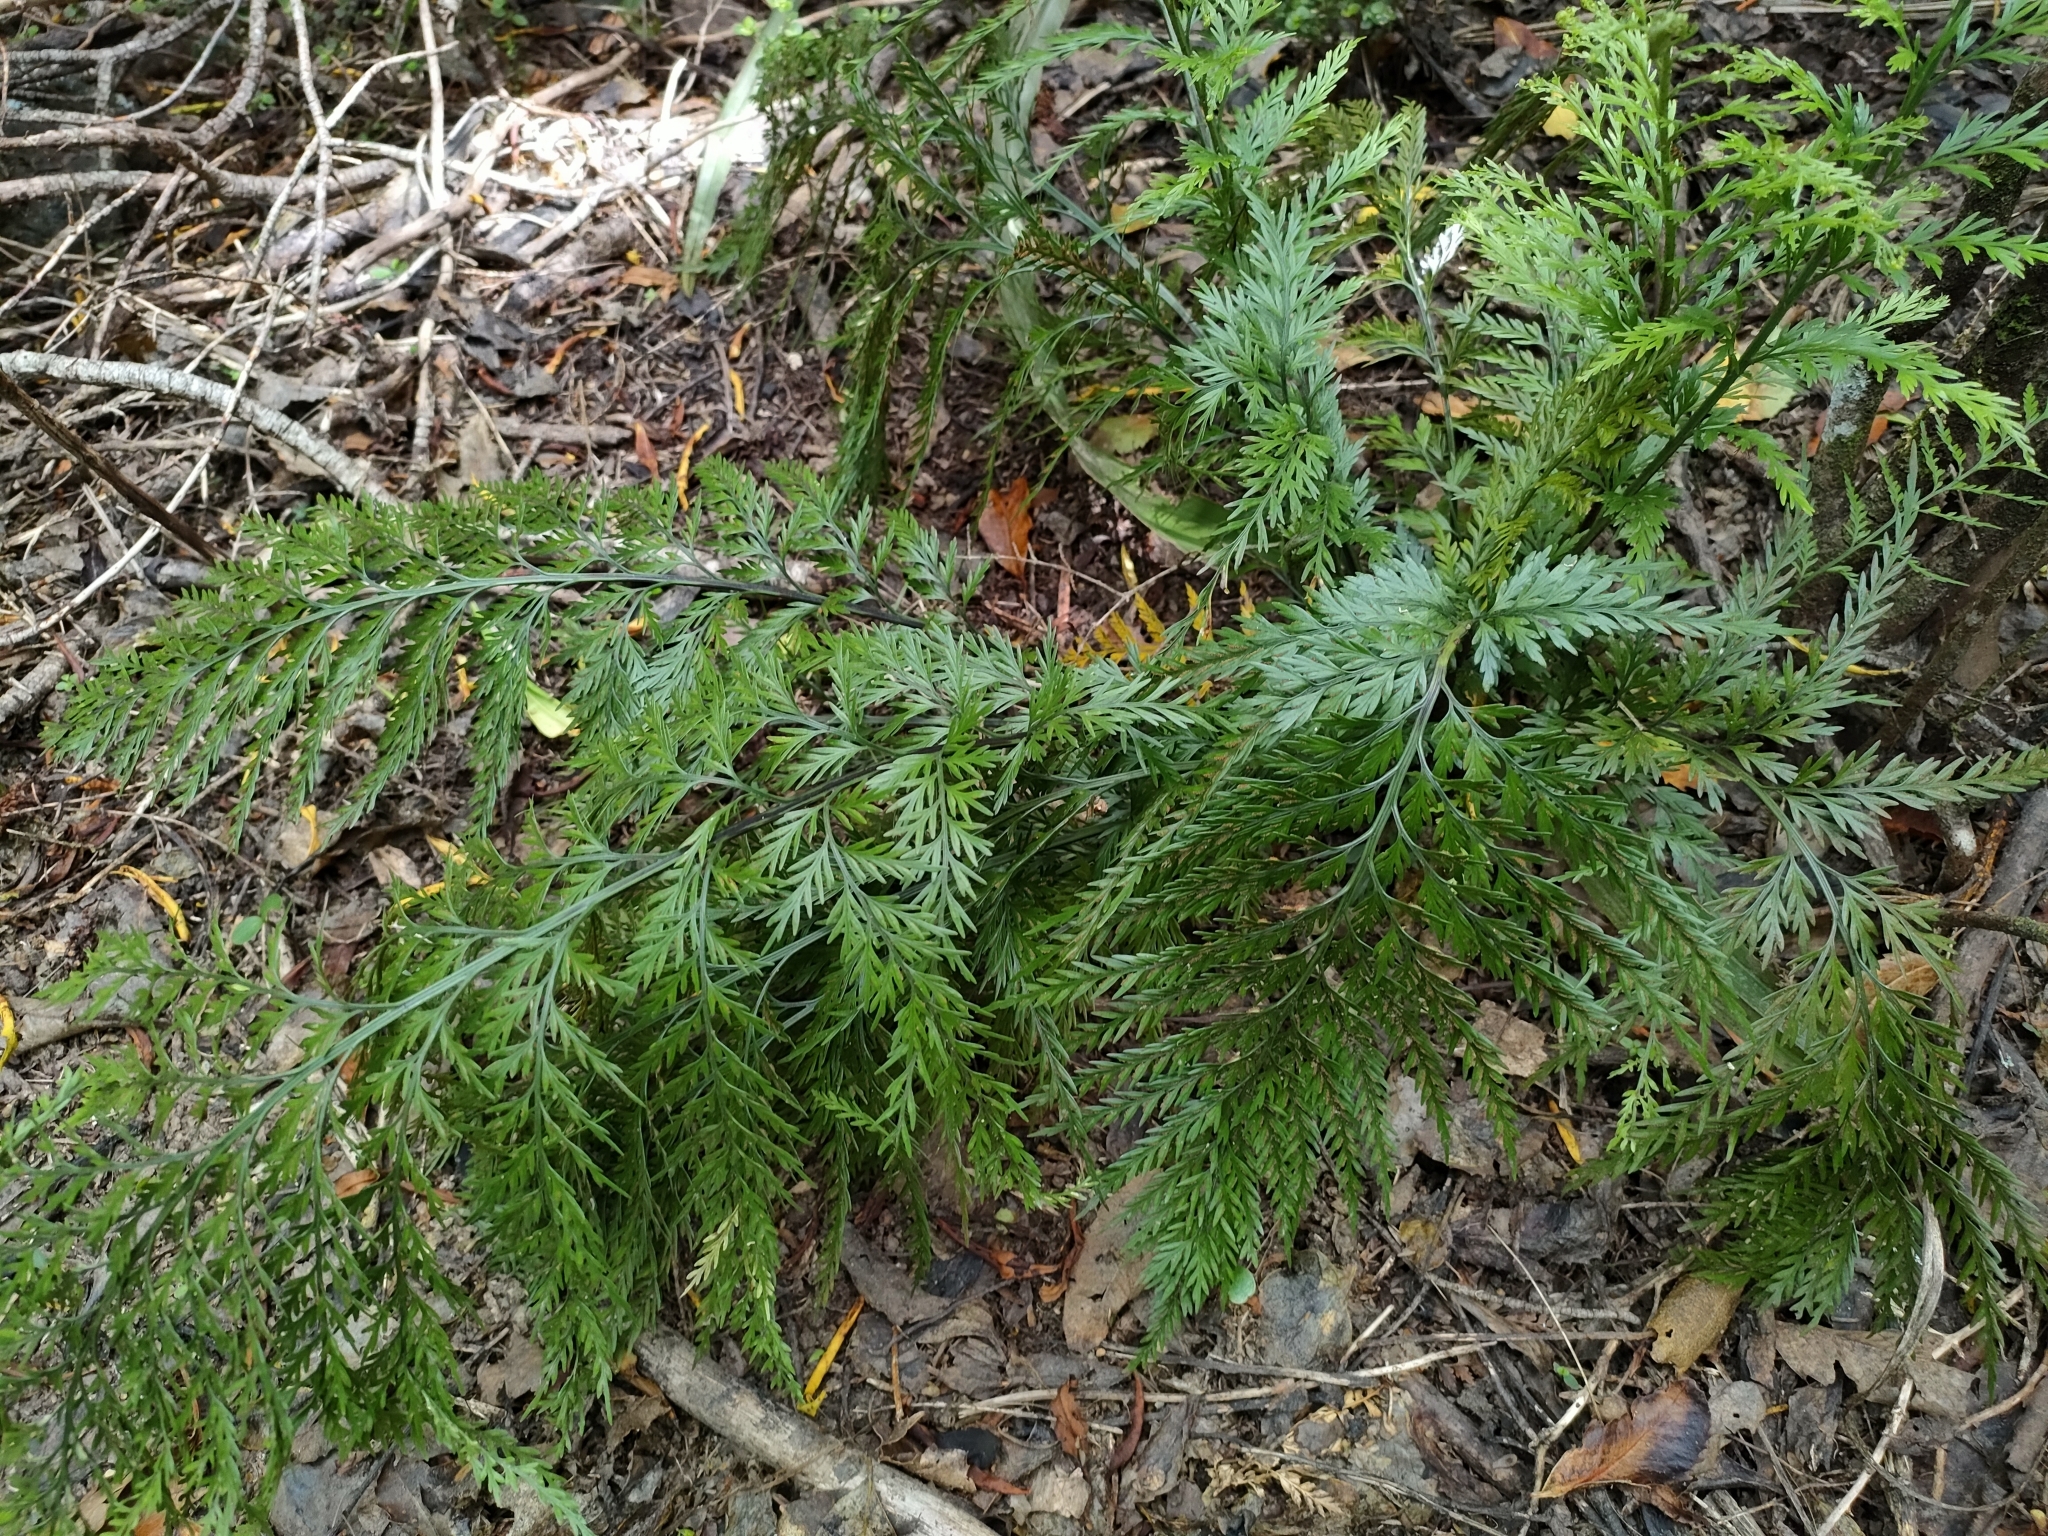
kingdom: Plantae
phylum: Tracheophyta
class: Polypodiopsida
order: Polypodiales
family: Aspleniaceae
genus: Asplenium
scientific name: Asplenium appendiculatum
